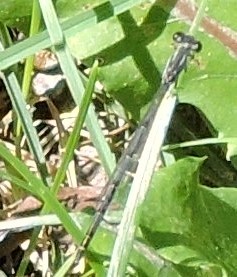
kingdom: Animalia
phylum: Arthropoda
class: Insecta
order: Odonata
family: Coenagrionidae
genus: Ischnura
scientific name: Ischnura posita
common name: Fragile forktail
